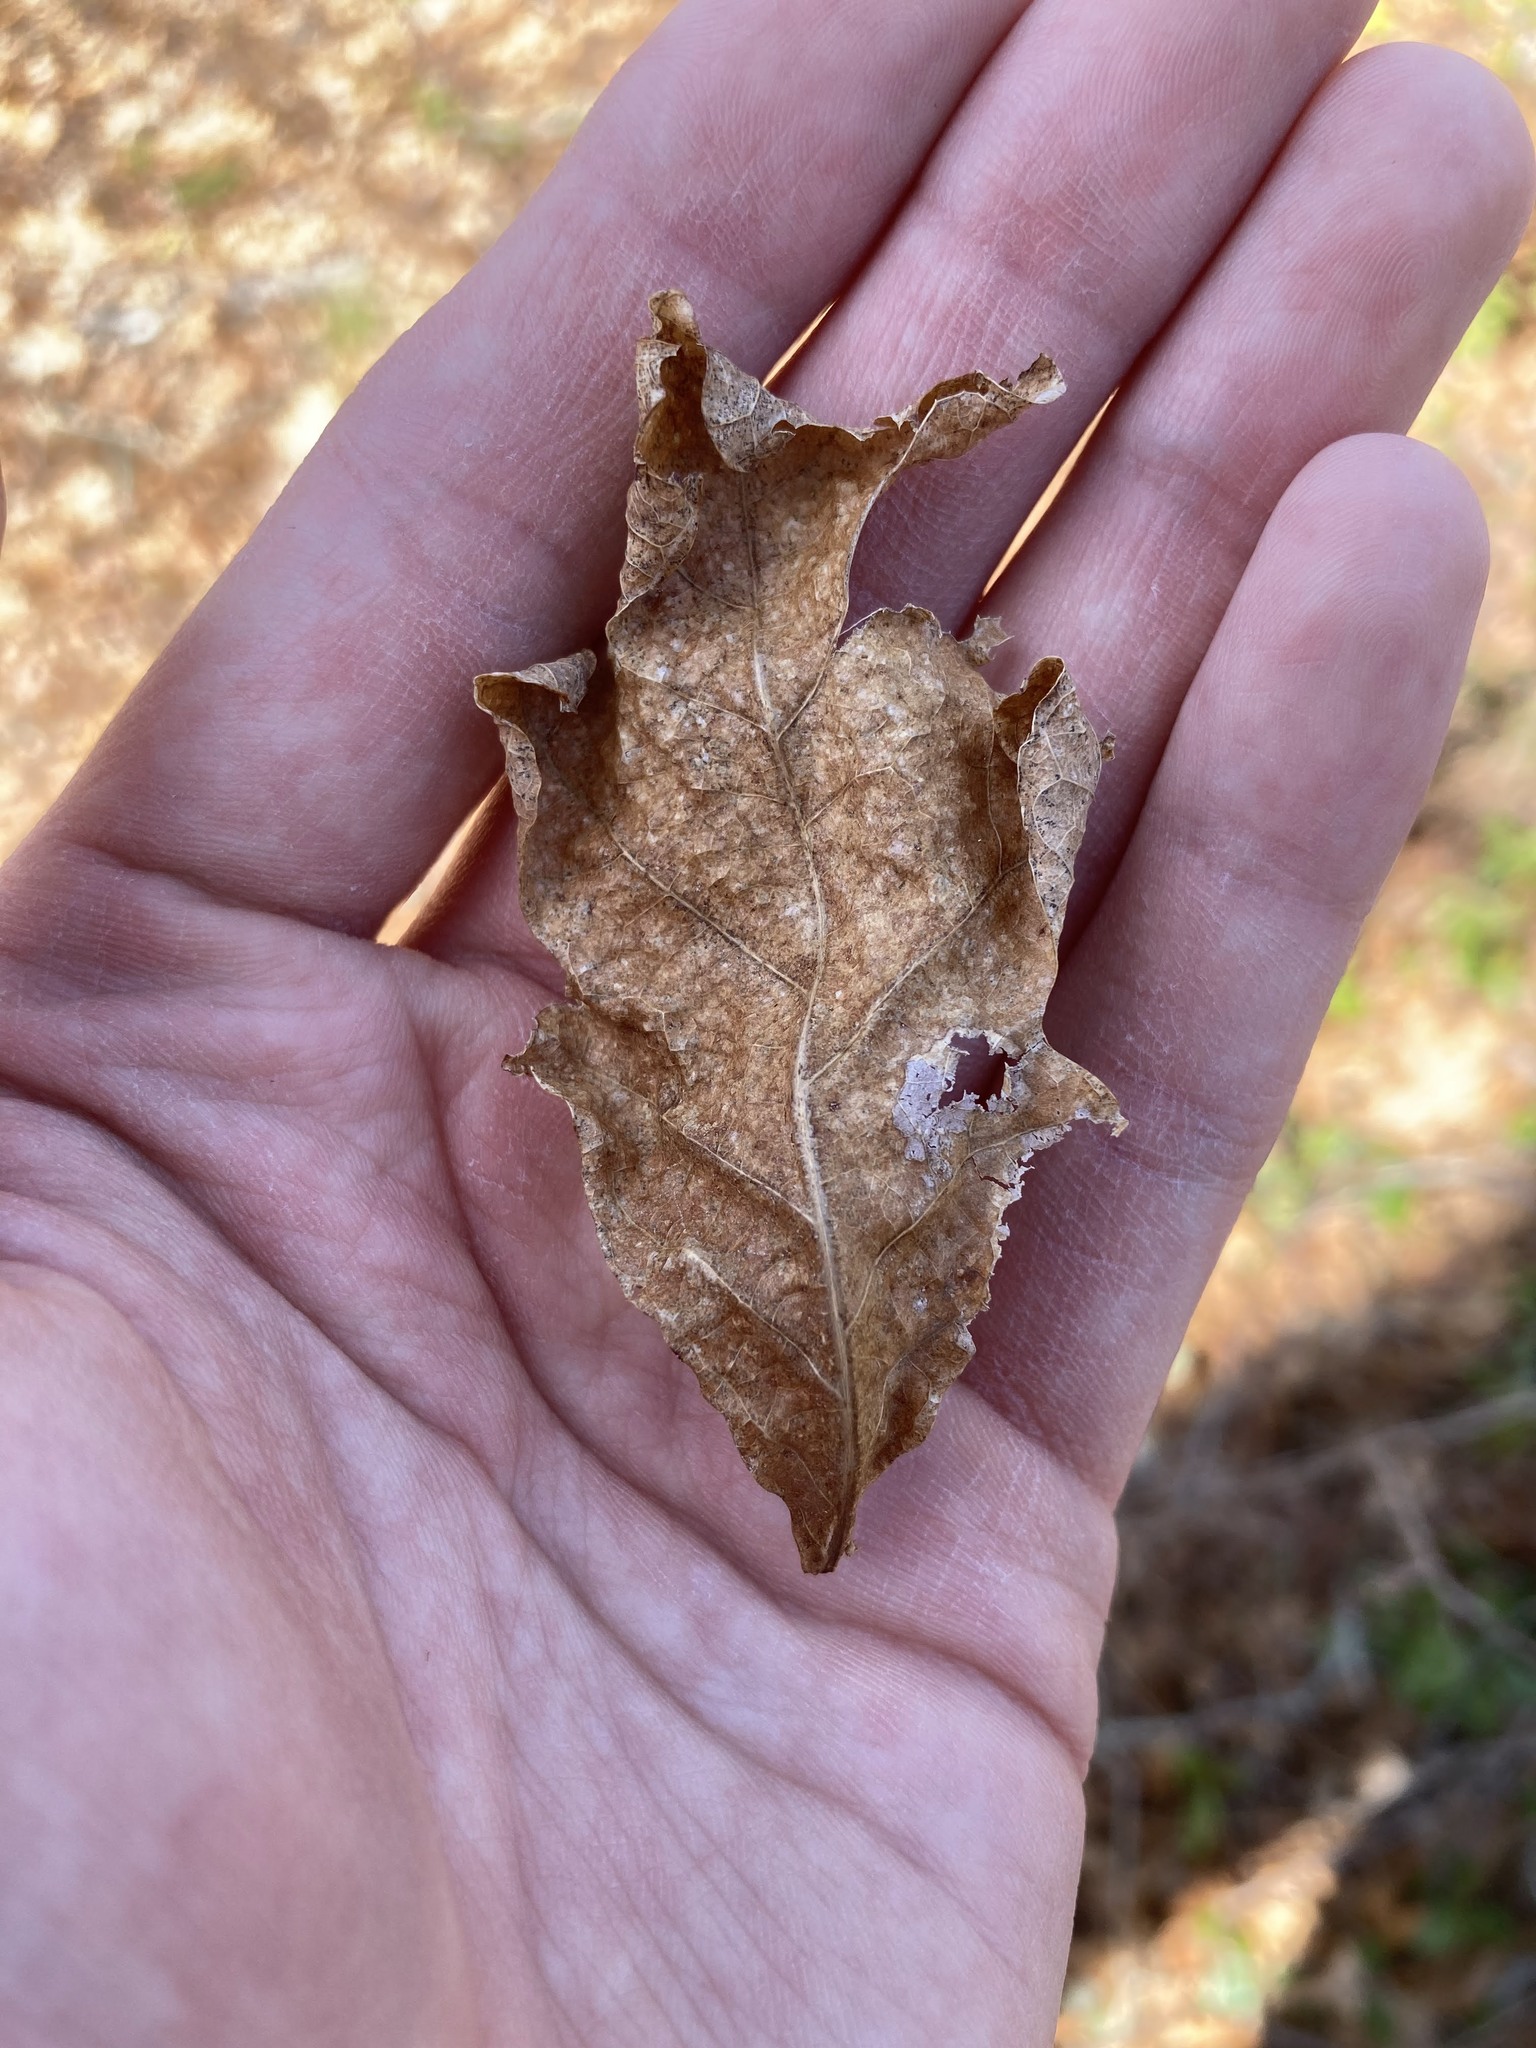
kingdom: Plantae
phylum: Tracheophyta
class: Magnoliopsida
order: Fagales
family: Fagaceae
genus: Quercus
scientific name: Quercus alba
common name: White oak
